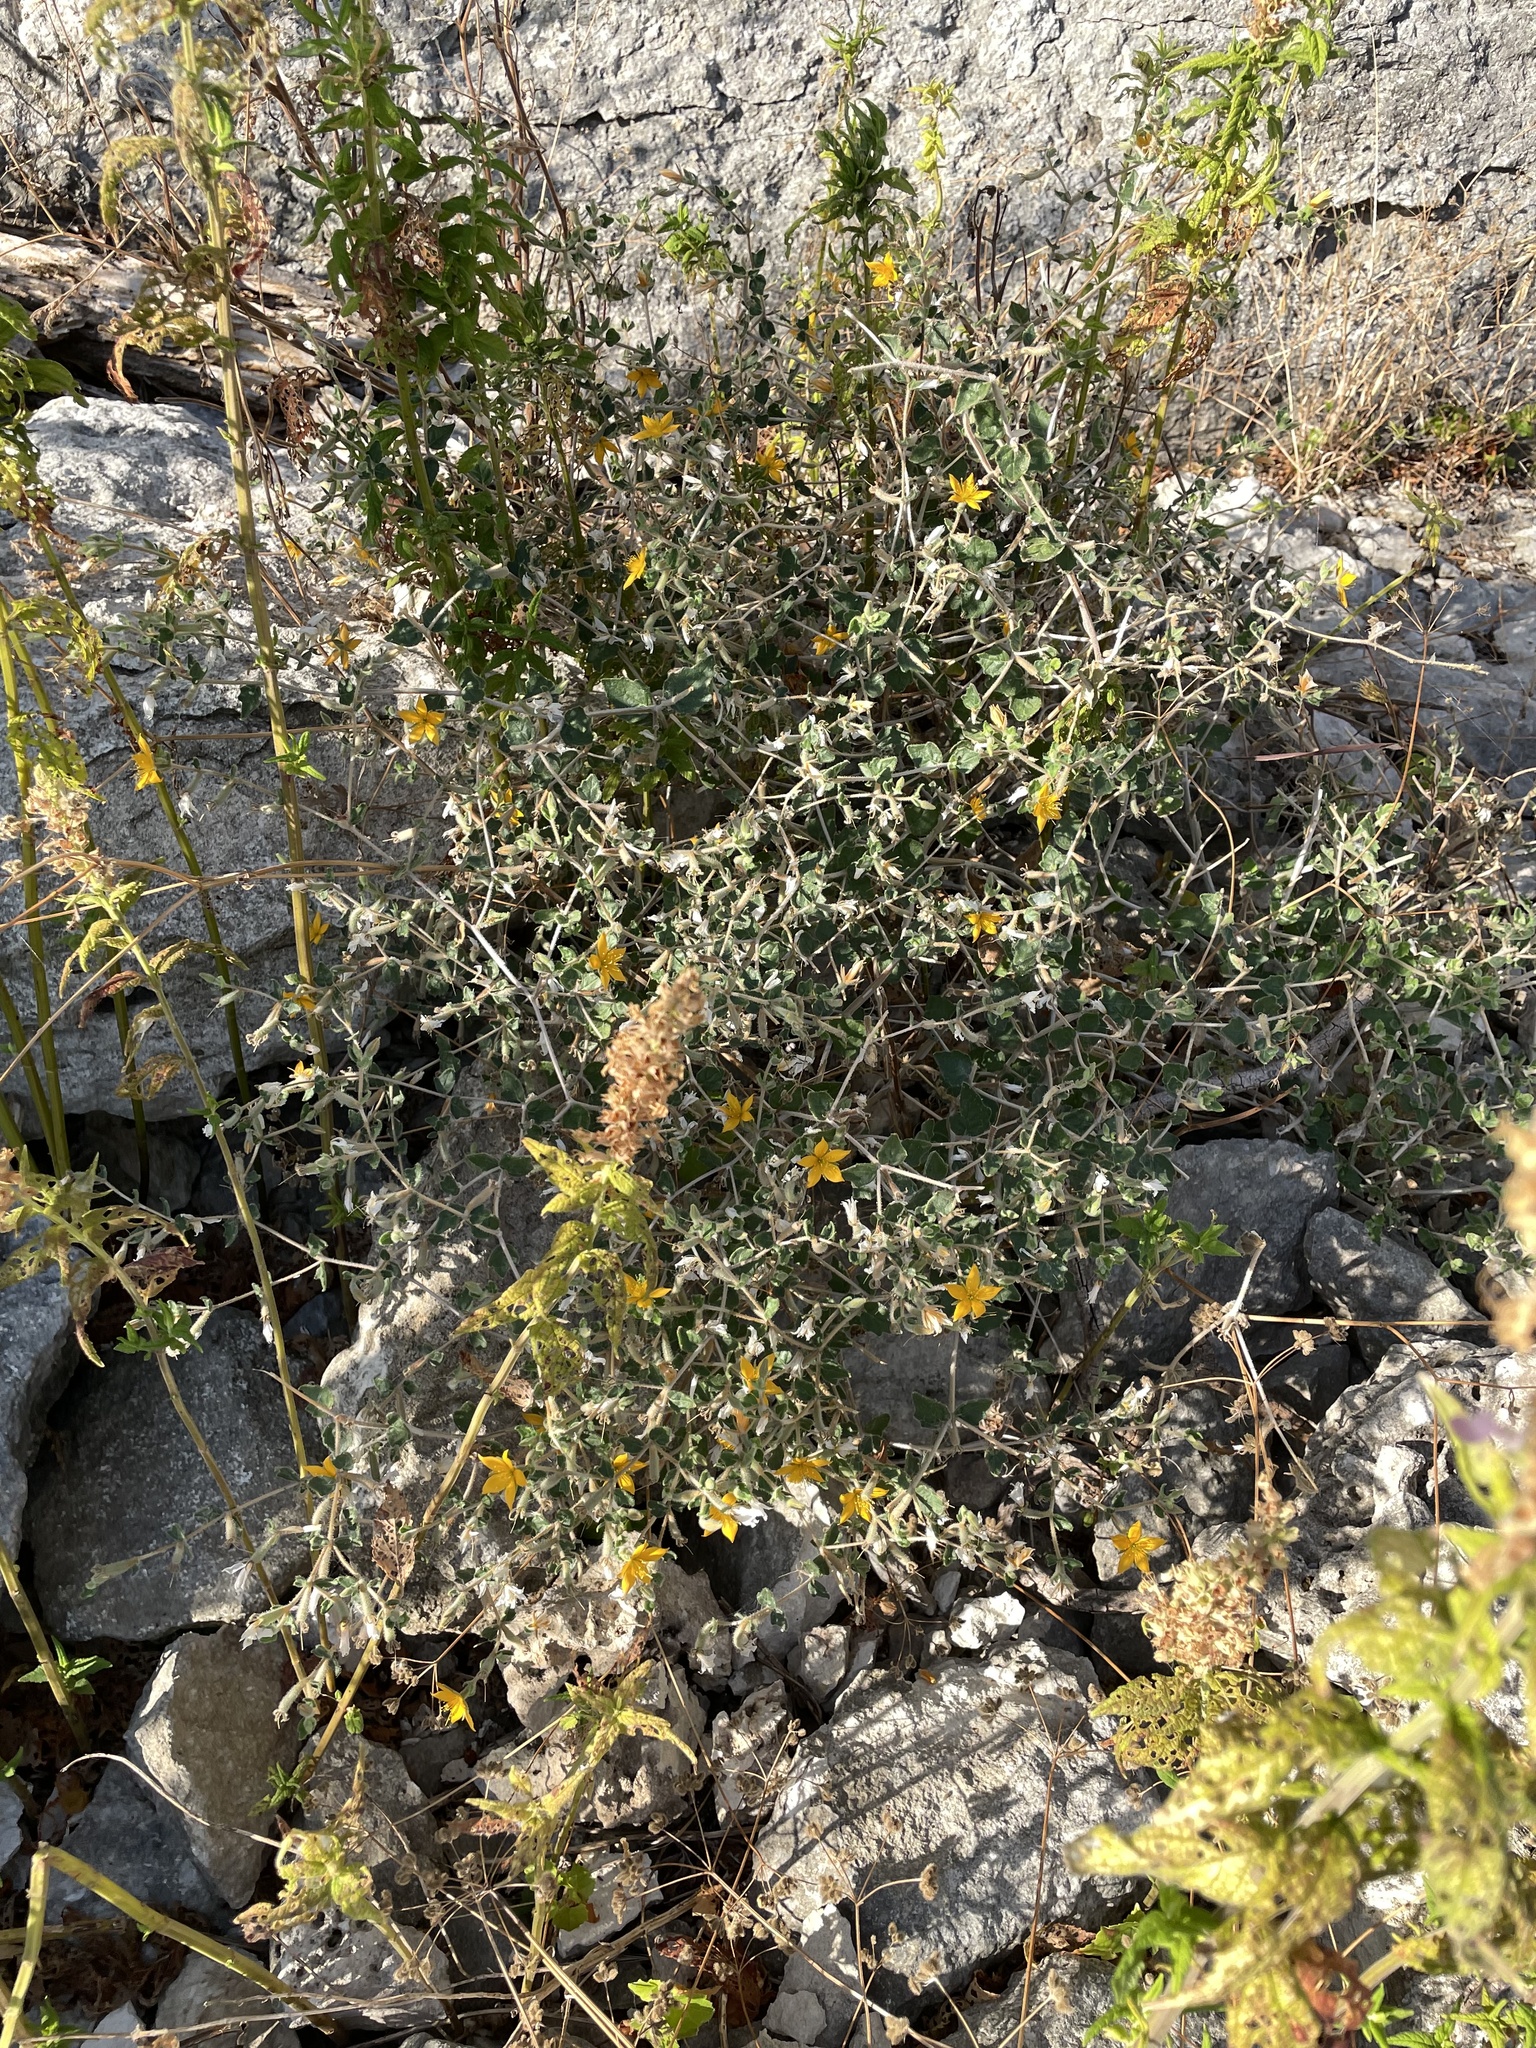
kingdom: Plantae
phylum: Tracheophyta
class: Magnoliopsida
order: Cornales
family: Loasaceae
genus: Mentzelia
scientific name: Mentzelia oligosperma
